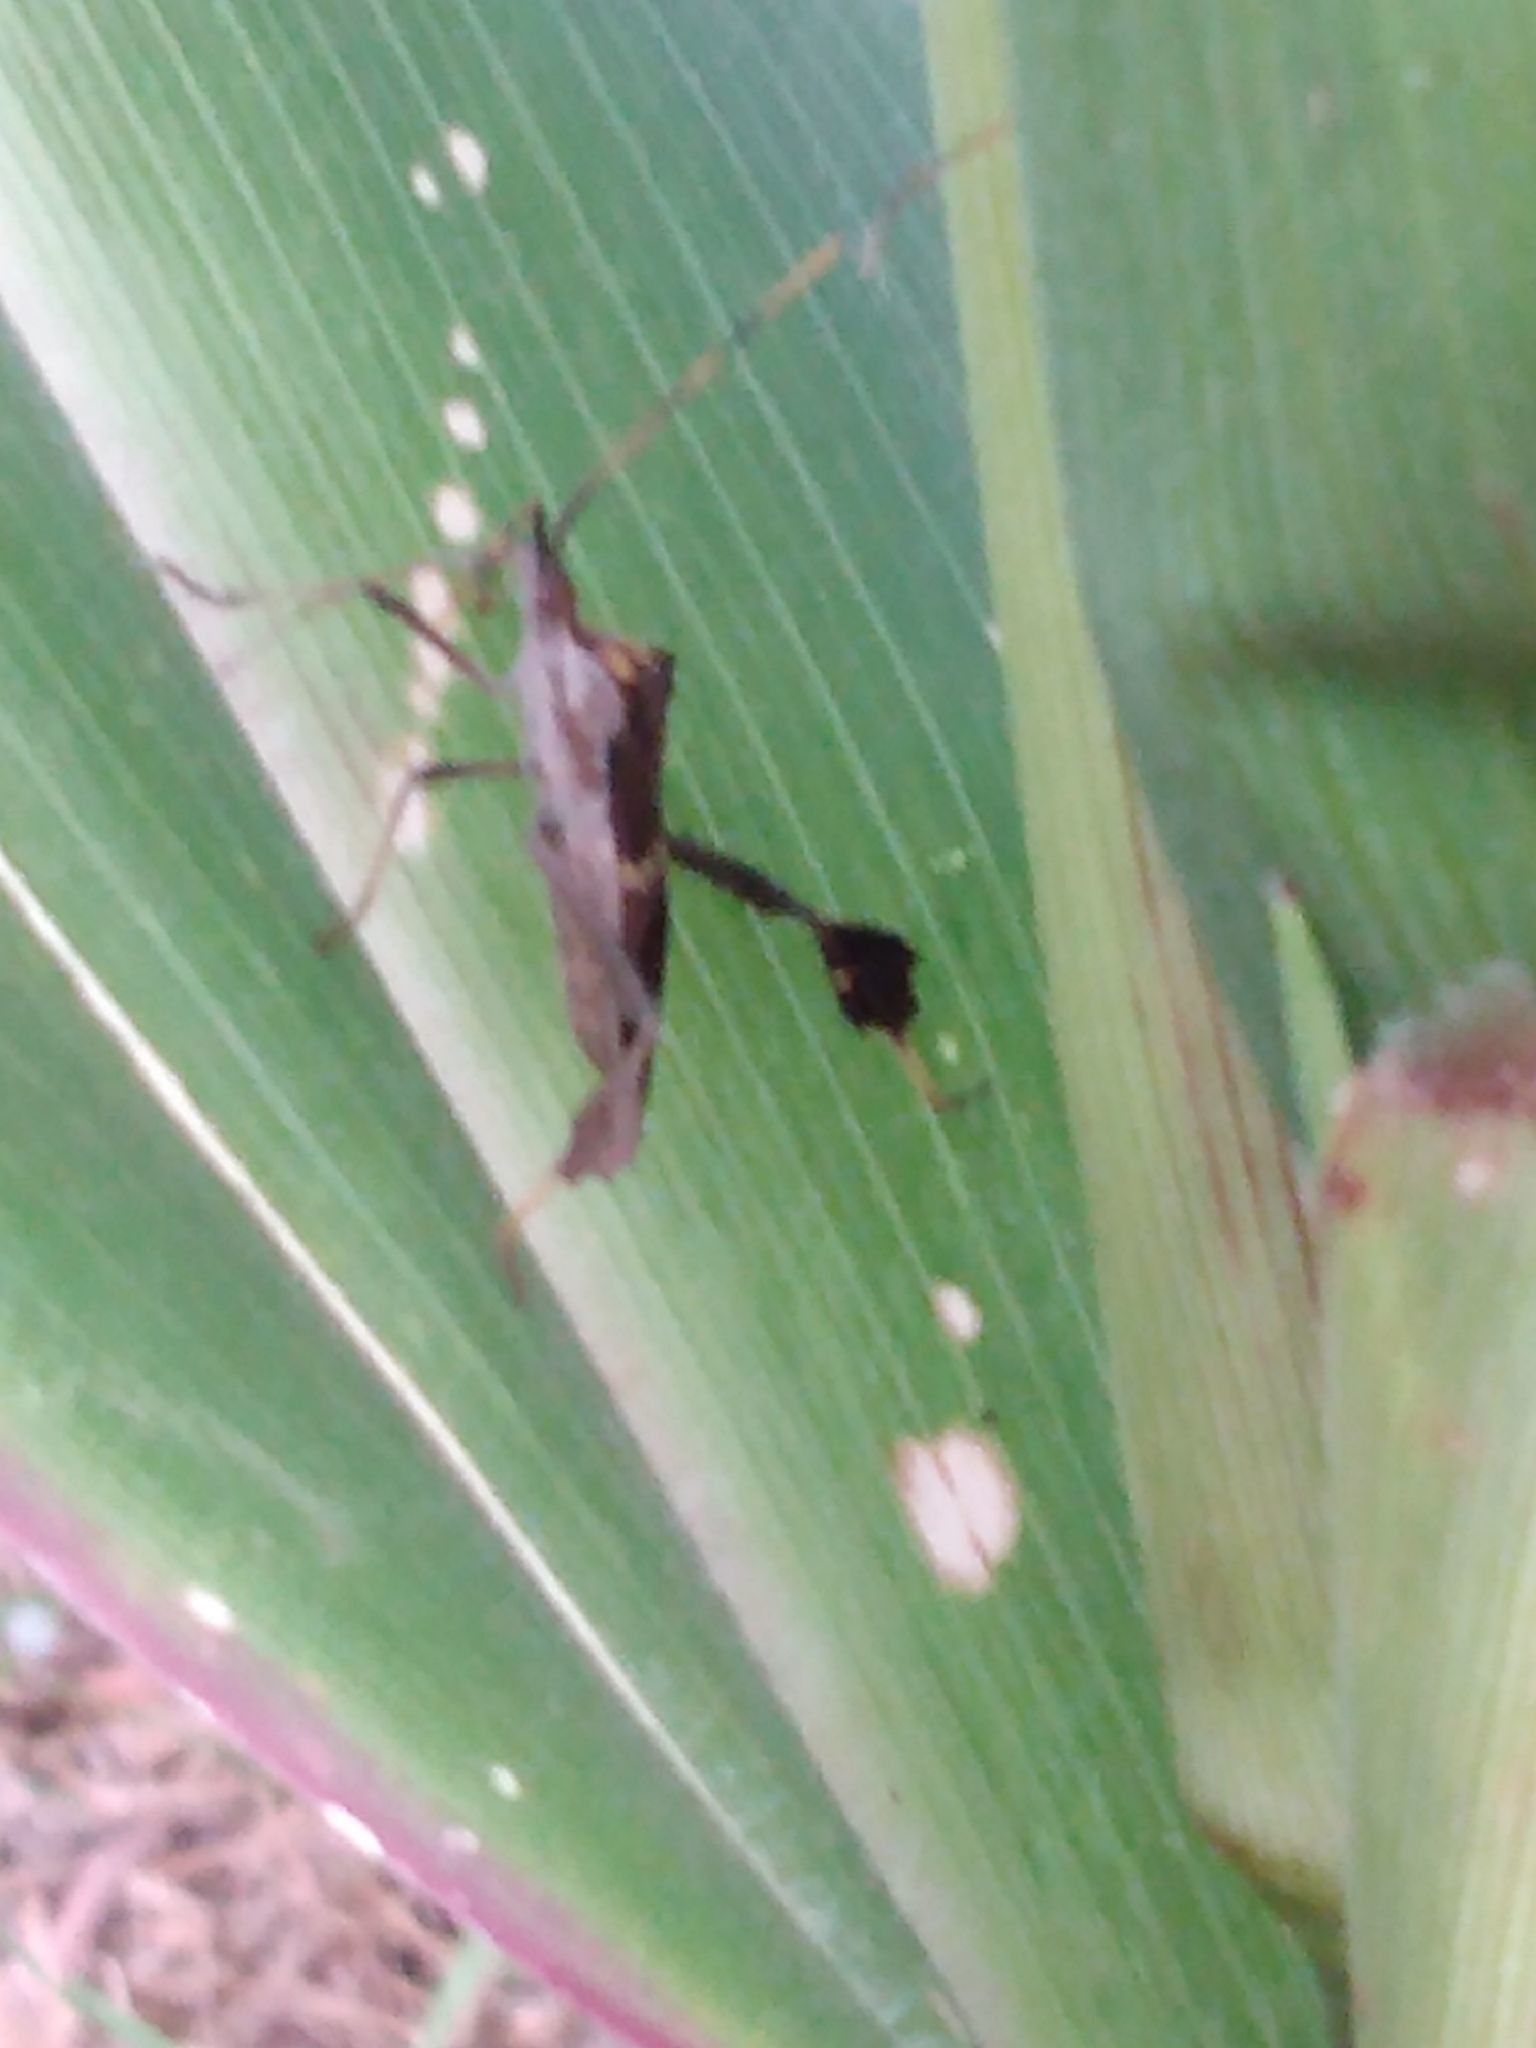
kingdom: Animalia
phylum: Arthropoda
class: Insecta
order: Hemiptera
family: Coreidae
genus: Leptoglossus
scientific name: Leptoglossus zonatus
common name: Large-legged bug
